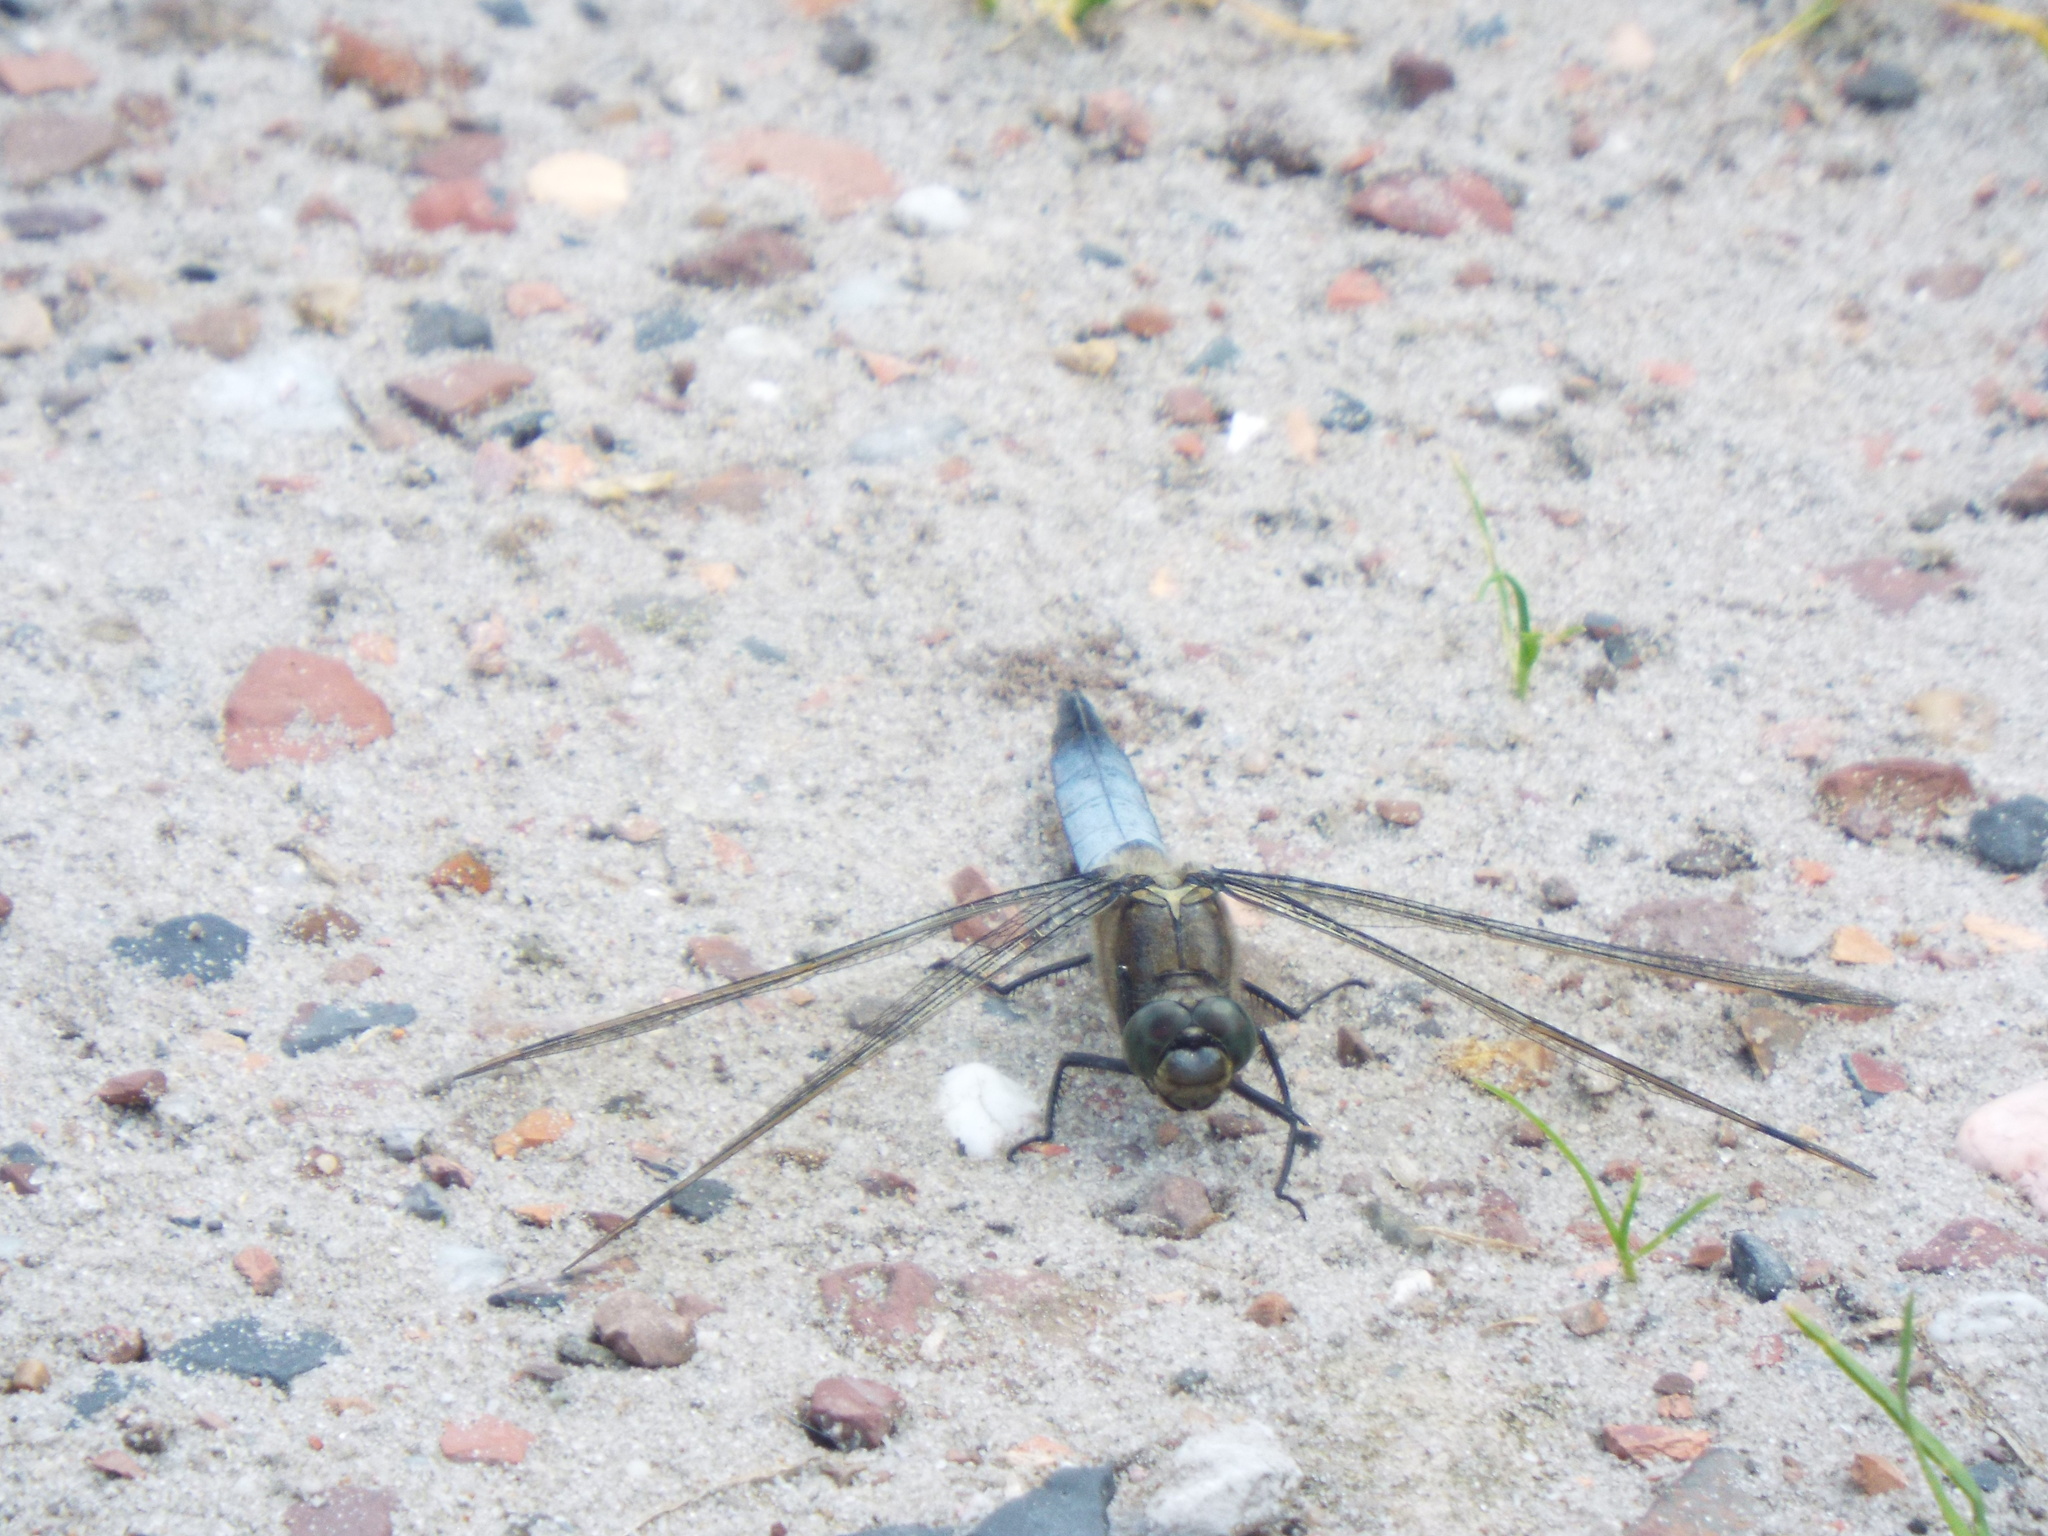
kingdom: Animalia
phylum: Arthropoda
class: Insecta
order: Odonata
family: Libellulidae
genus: Orthetrum
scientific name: Orthetrum cancellatum
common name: Black-tailed skimmer
